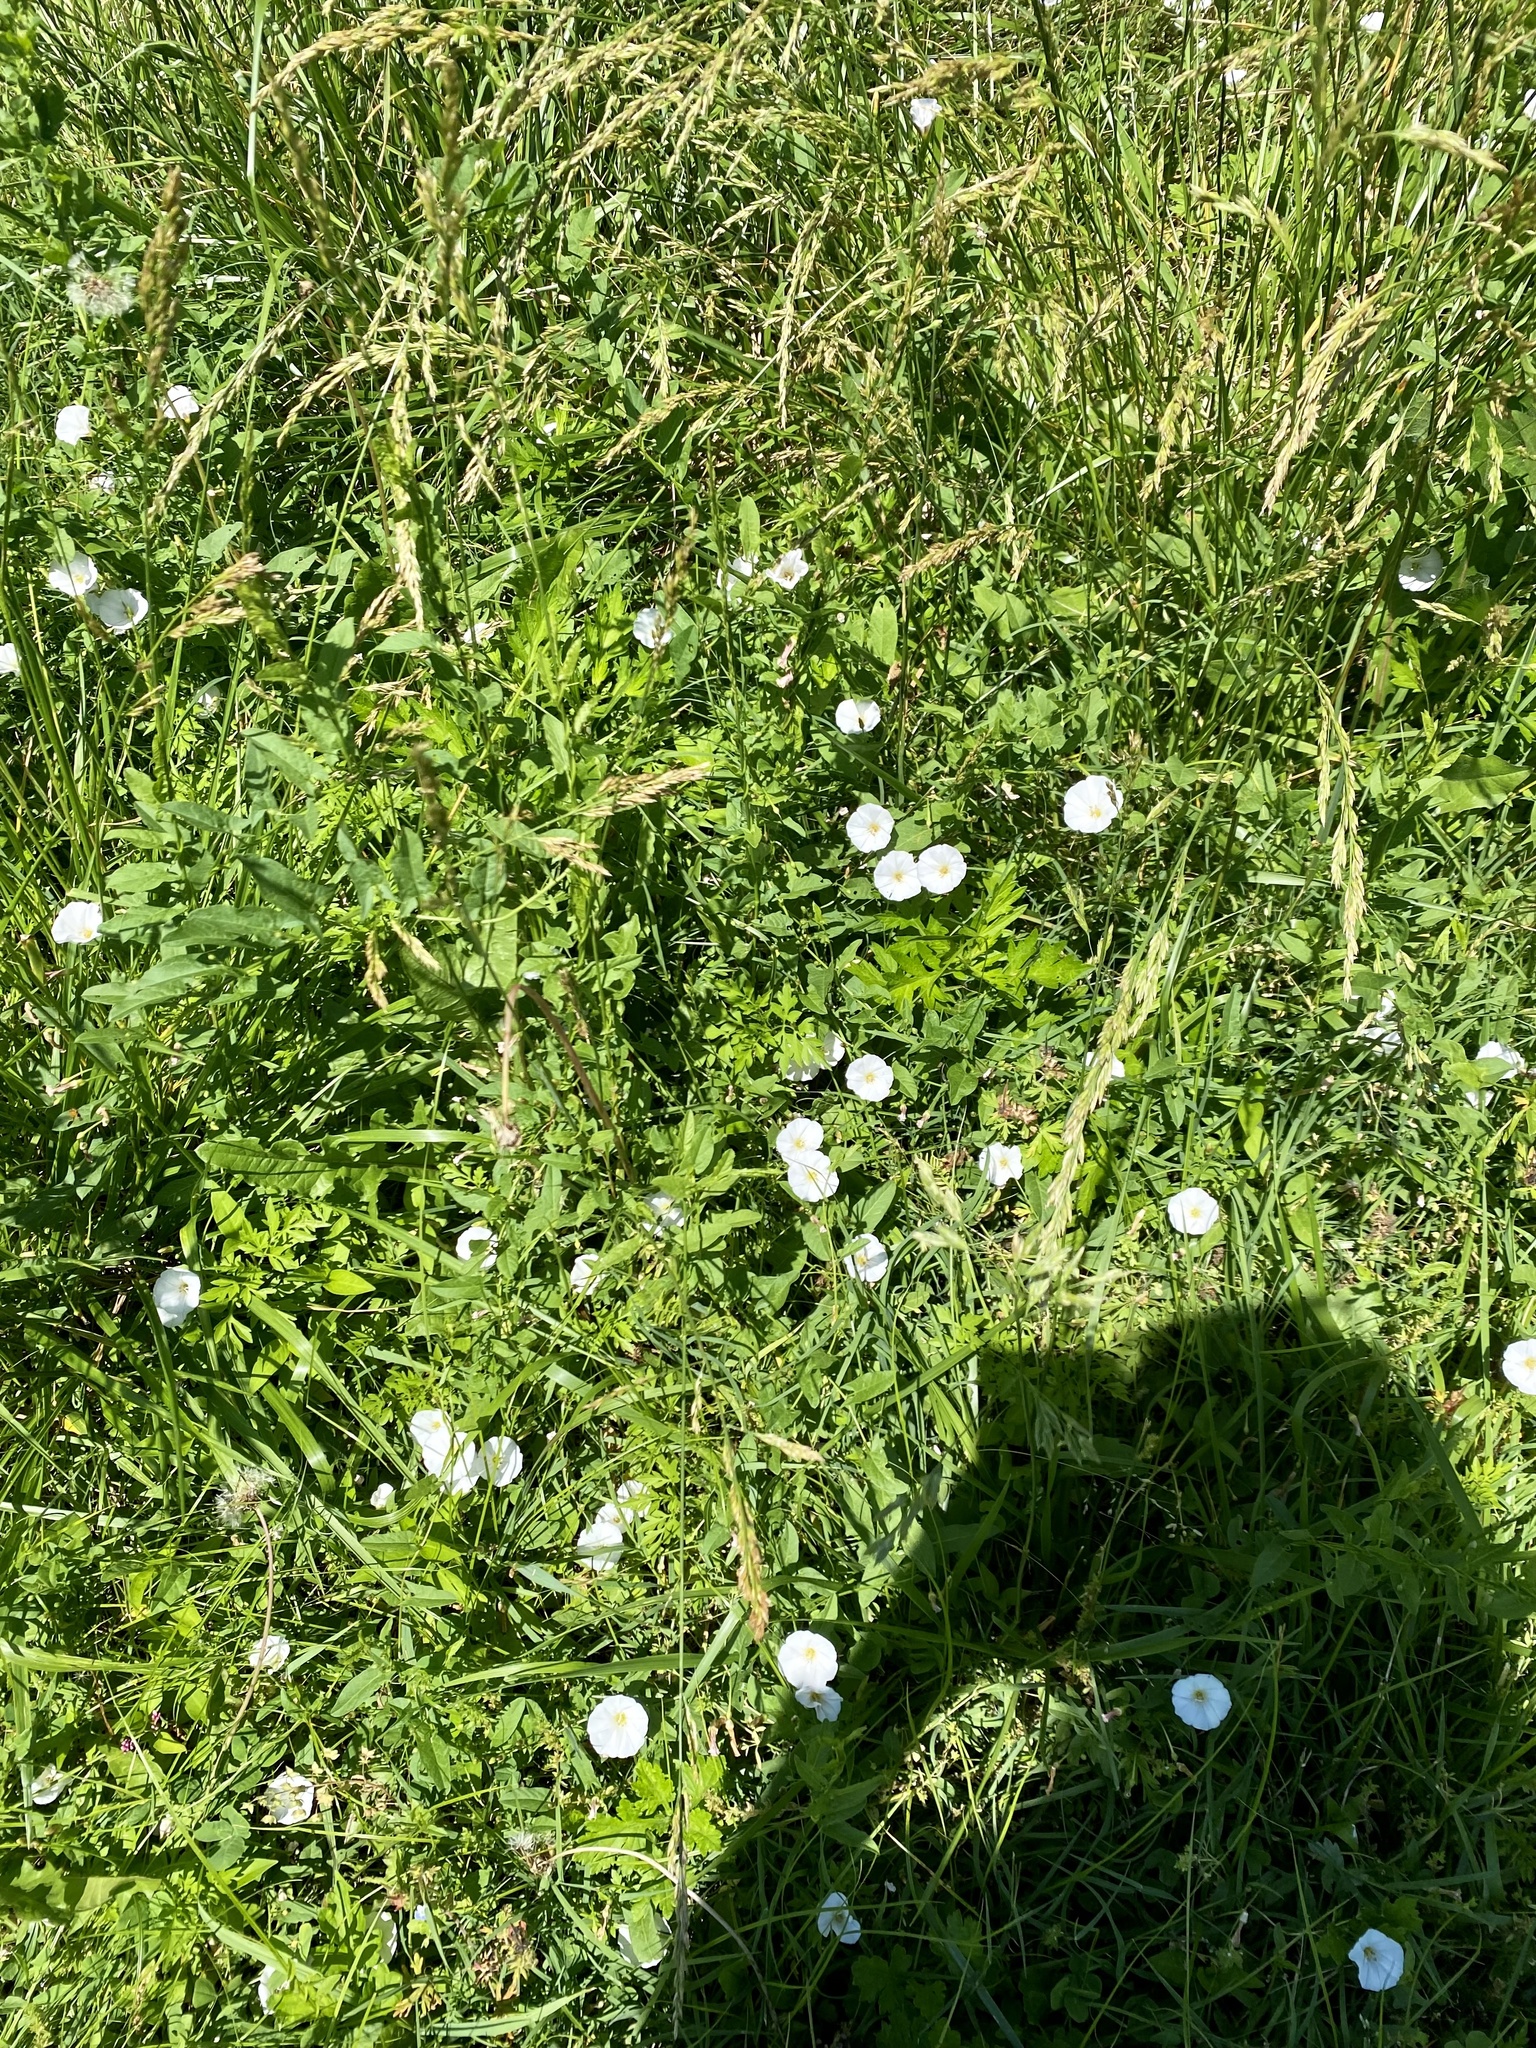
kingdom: Plantae
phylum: Tracheophyta
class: Magnoliopsida
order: Solanales
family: Convolvulaceae
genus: Convolvulus
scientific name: Convolvulus arvensis
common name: Field bindweed
